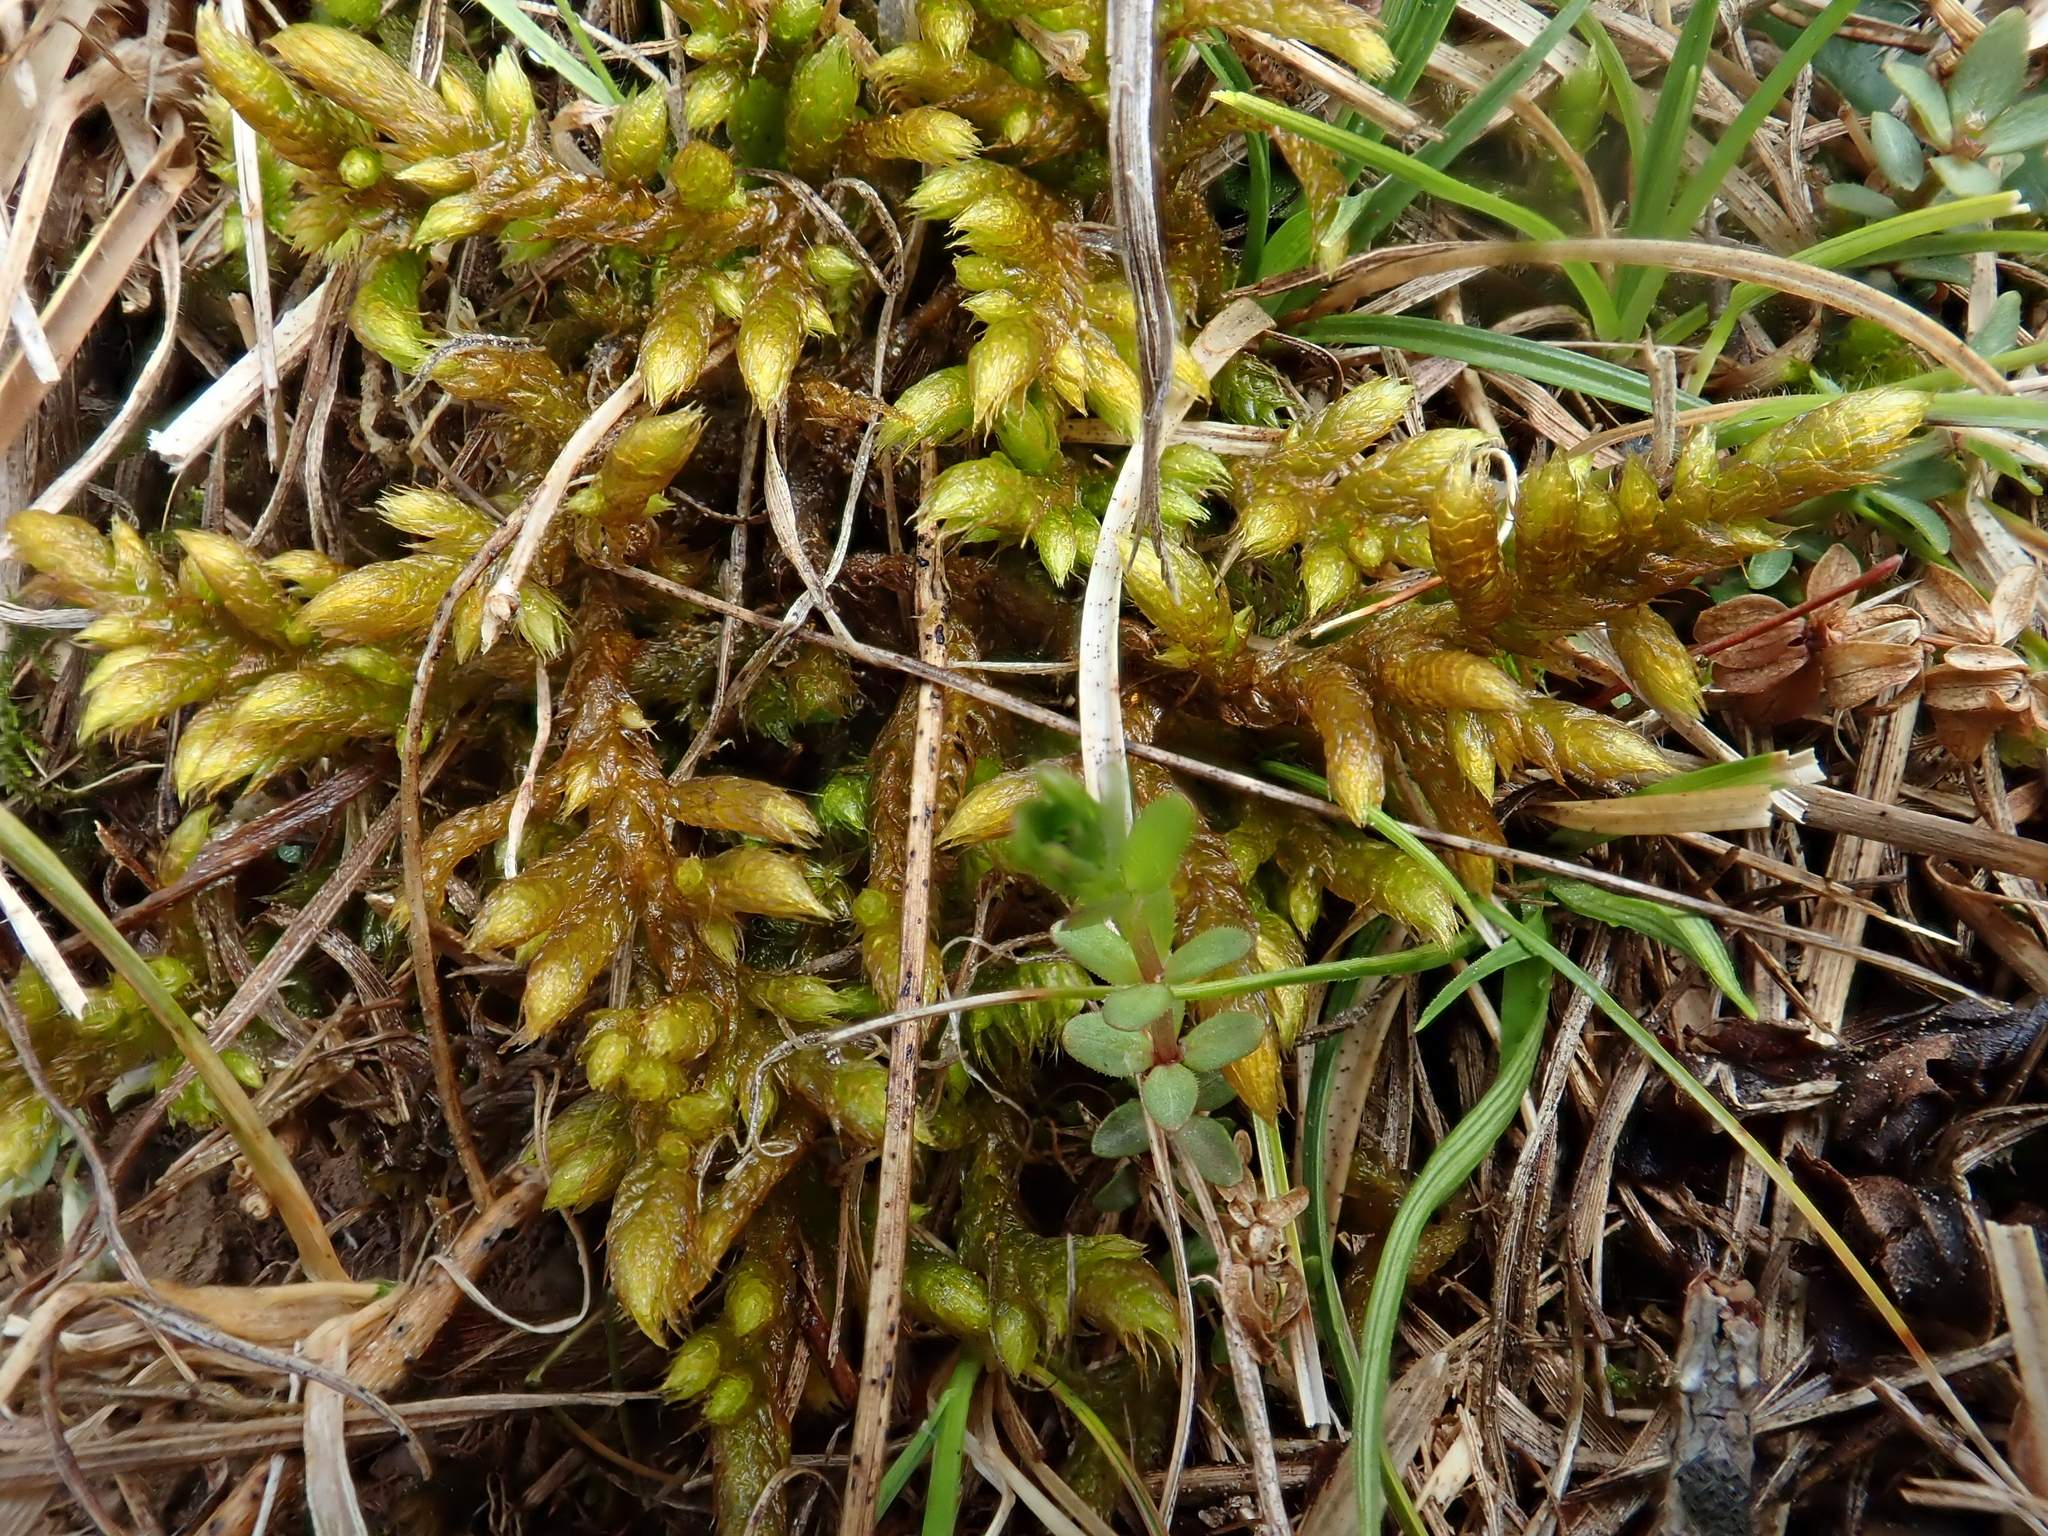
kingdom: Plantae
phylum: Bryophyta
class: Bryopsida
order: Hypnales
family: Rhytidiaceae
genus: Rhytidium
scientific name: Rhytidium rugosum
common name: Wrinkle-leaved moss
